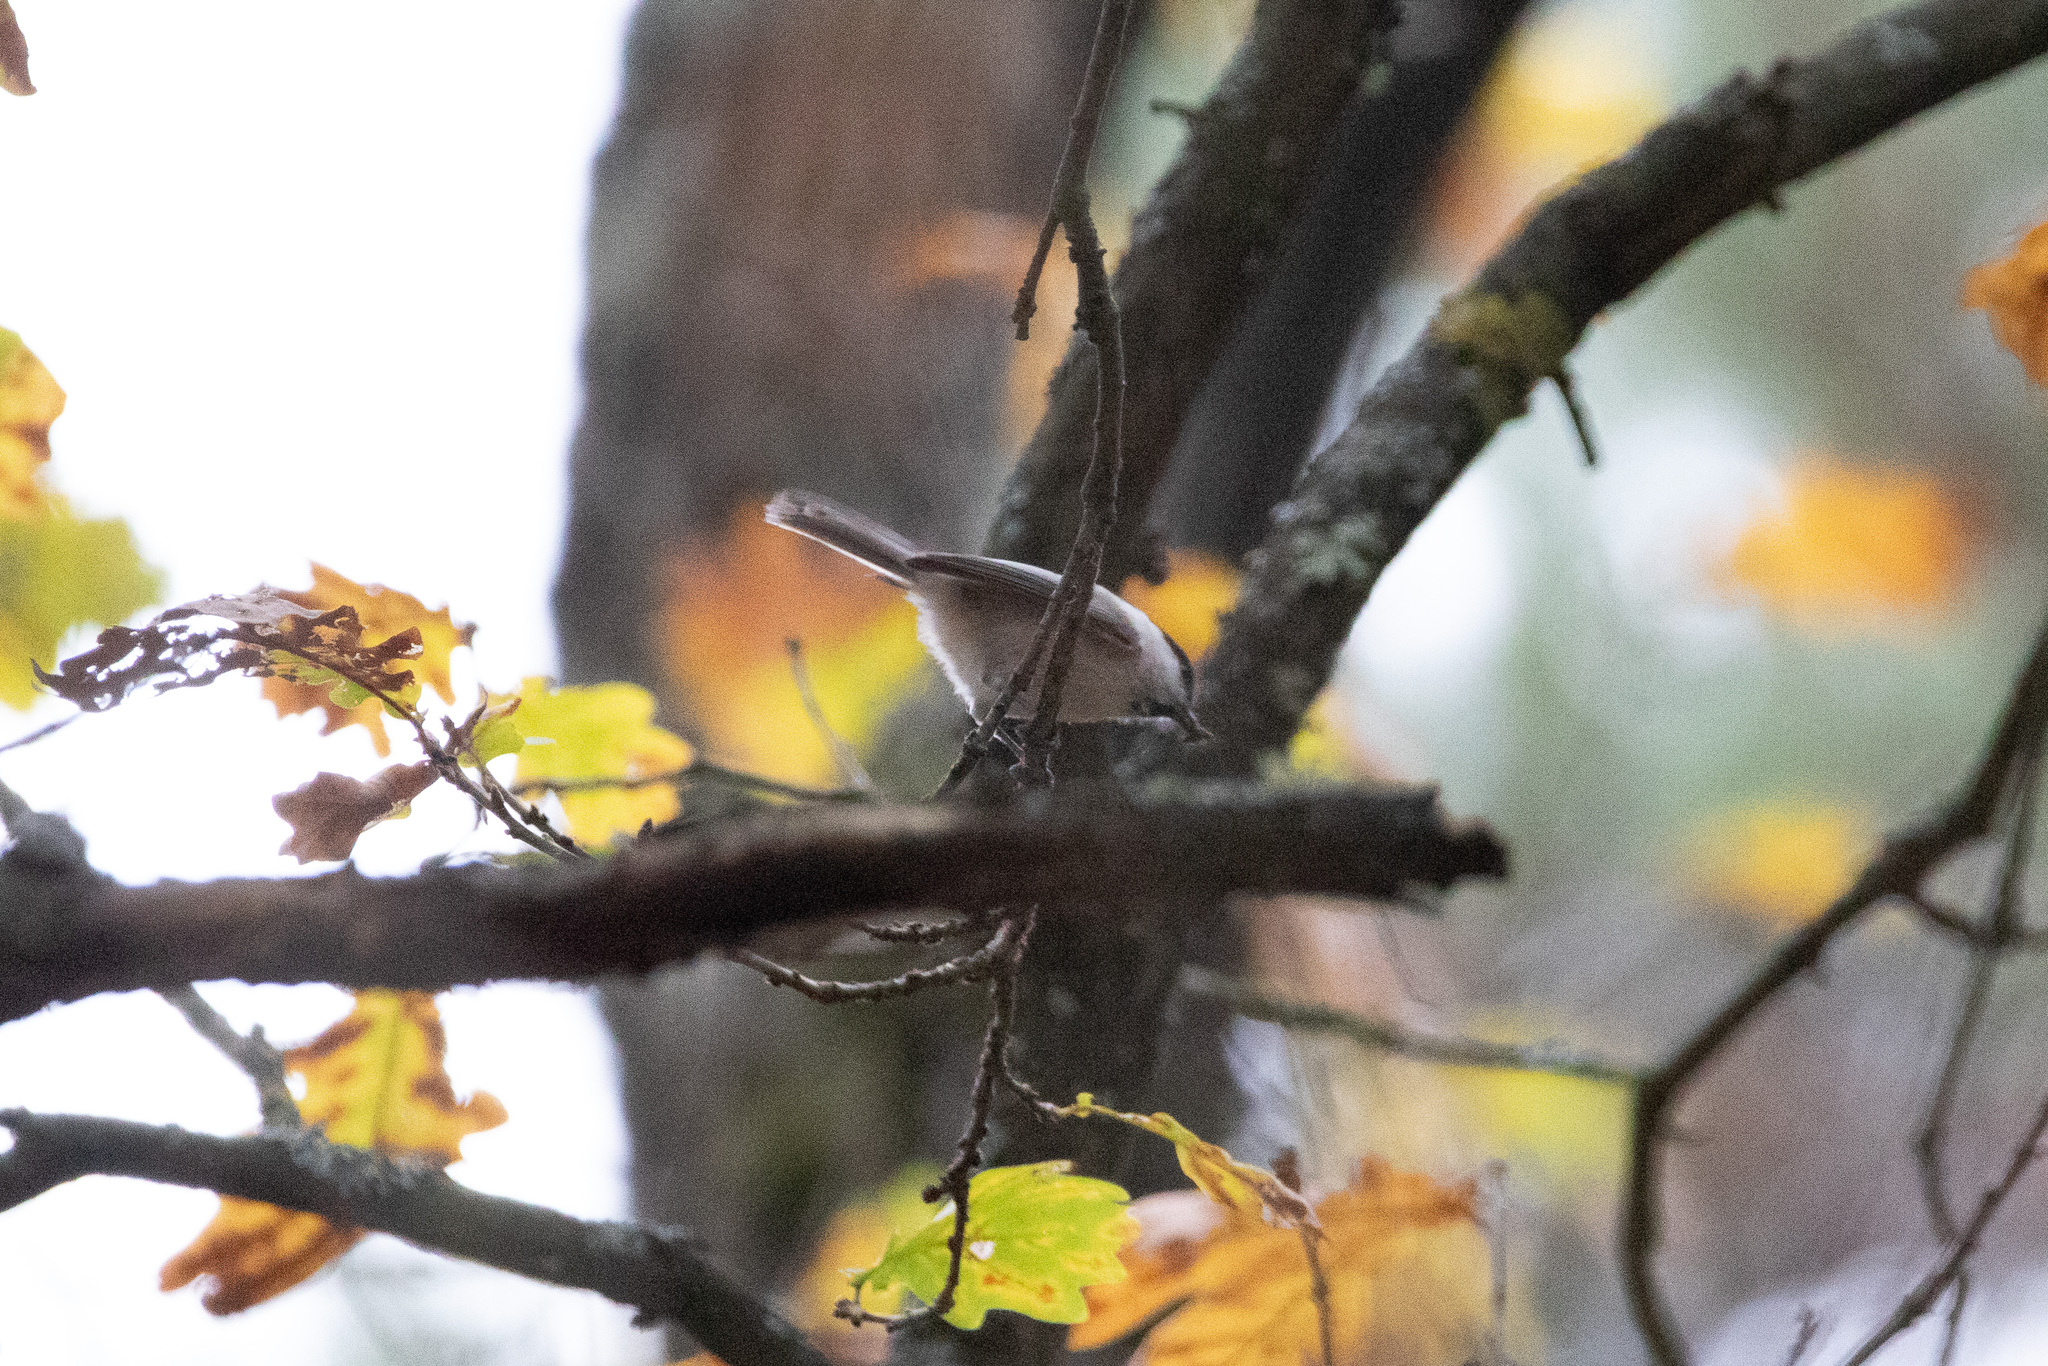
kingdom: Animalia
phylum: Chordata
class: Aves
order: Passeriformes
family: Paridae
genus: Poecile
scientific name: Poecile montanus
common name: Willow tit
